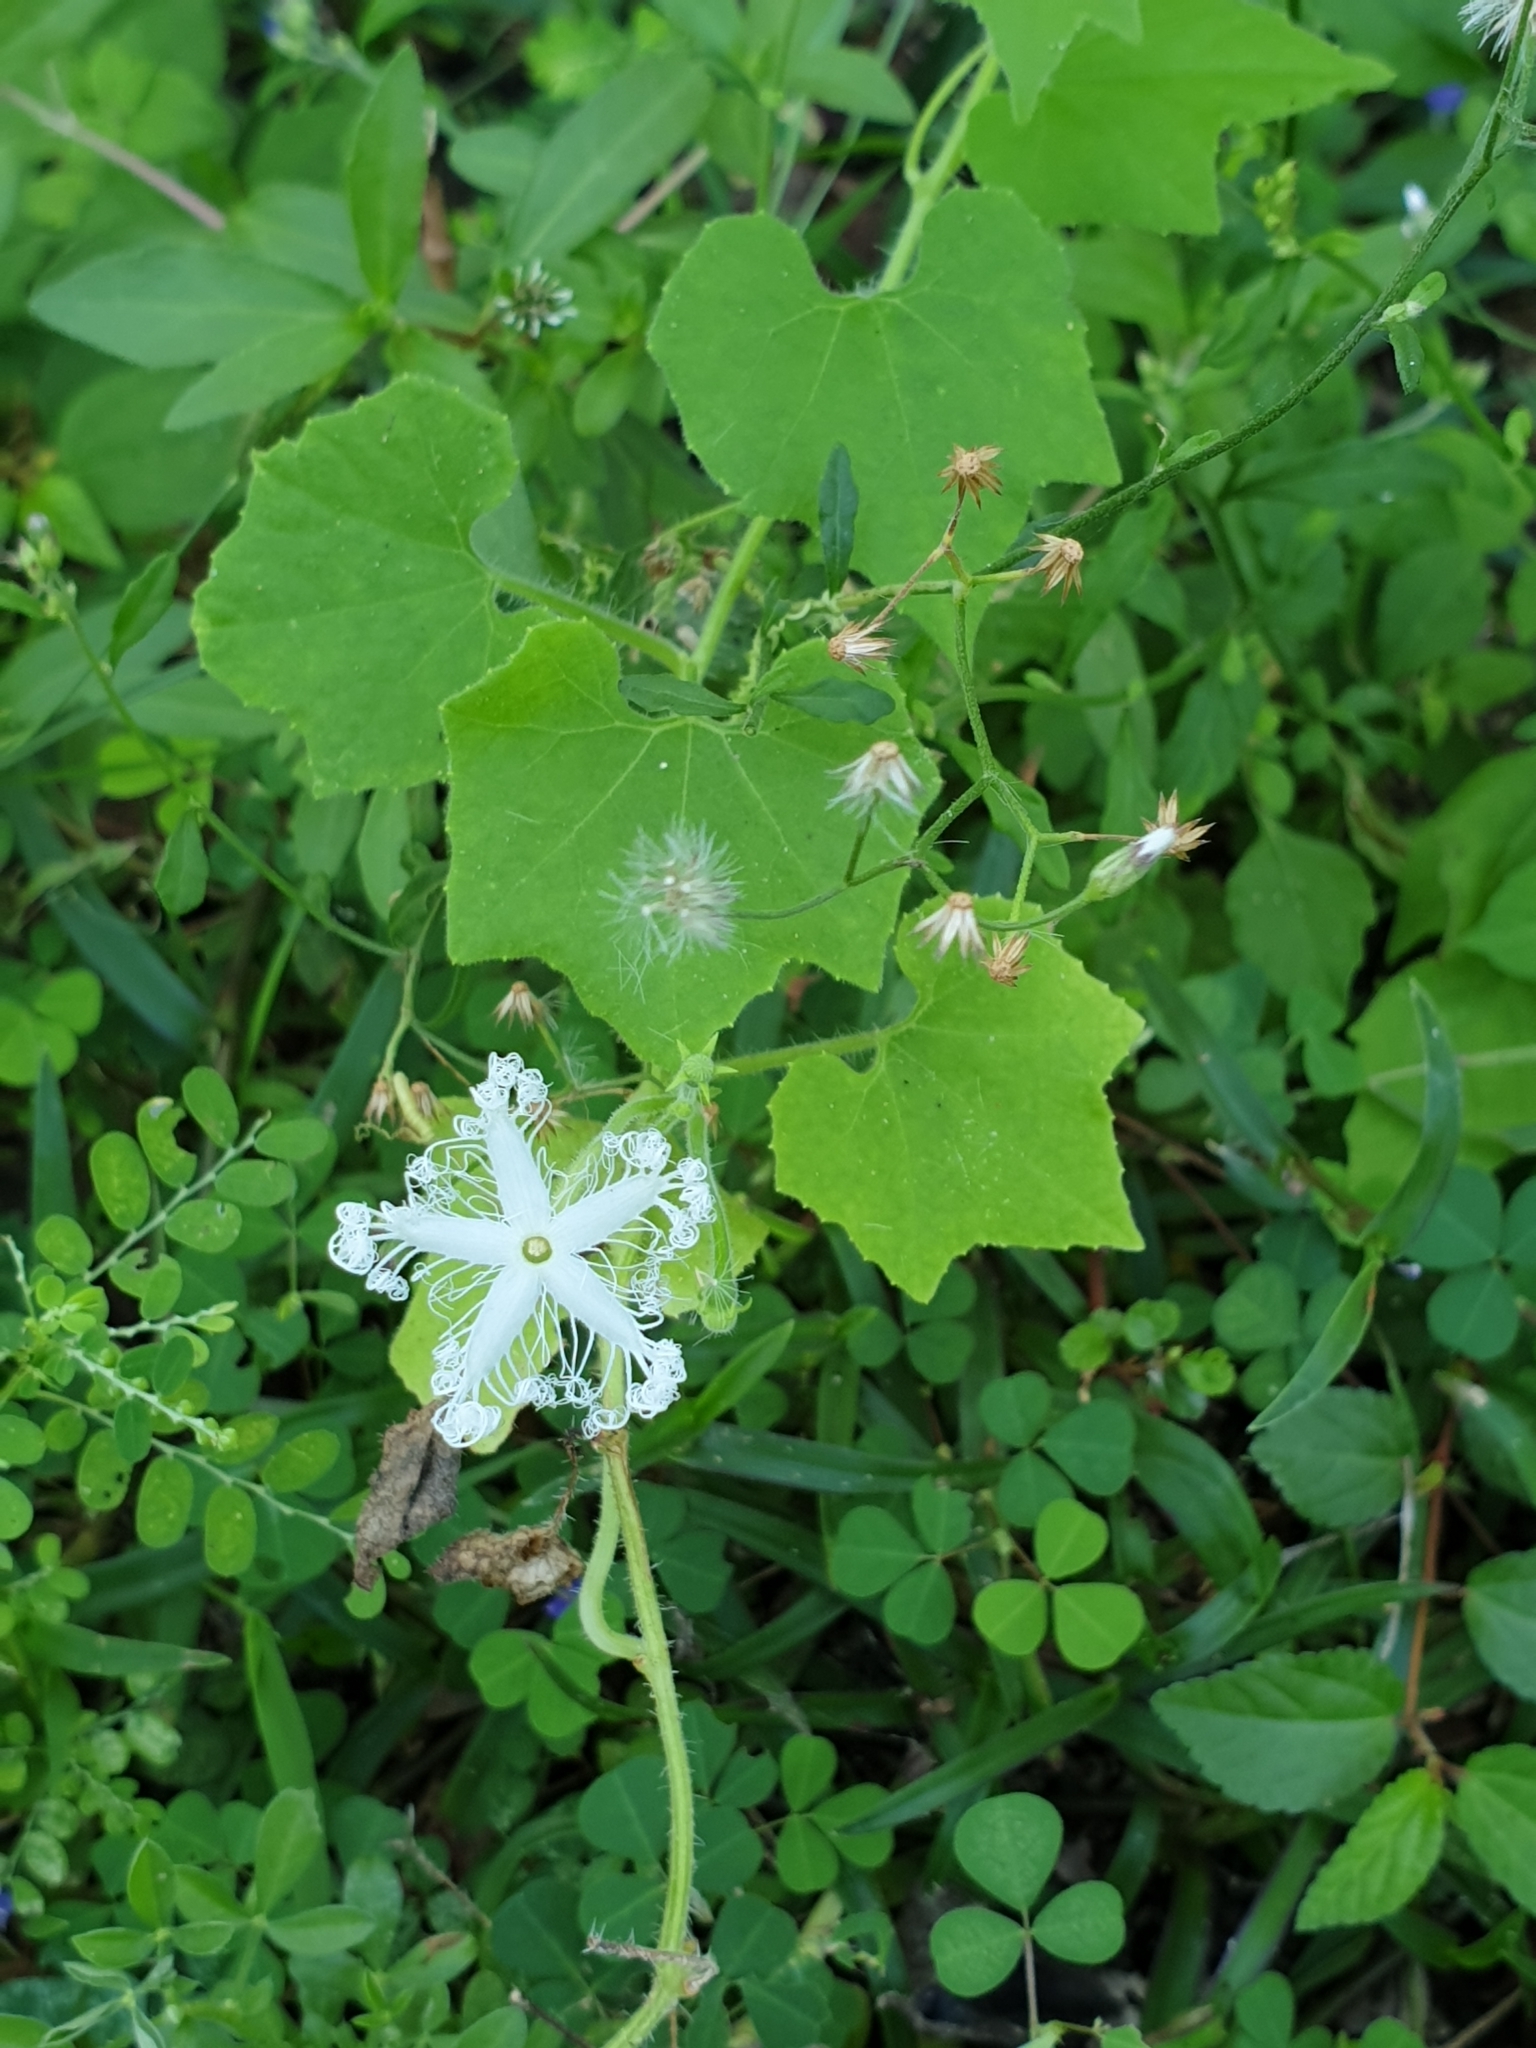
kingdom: Plantae
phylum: Tracheophyta
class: Magnoliopsida
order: Cucurbitales
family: Cucurbitaceae
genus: Trichosanthes
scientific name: Trichosanthes cucumerina
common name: Snakegourd
